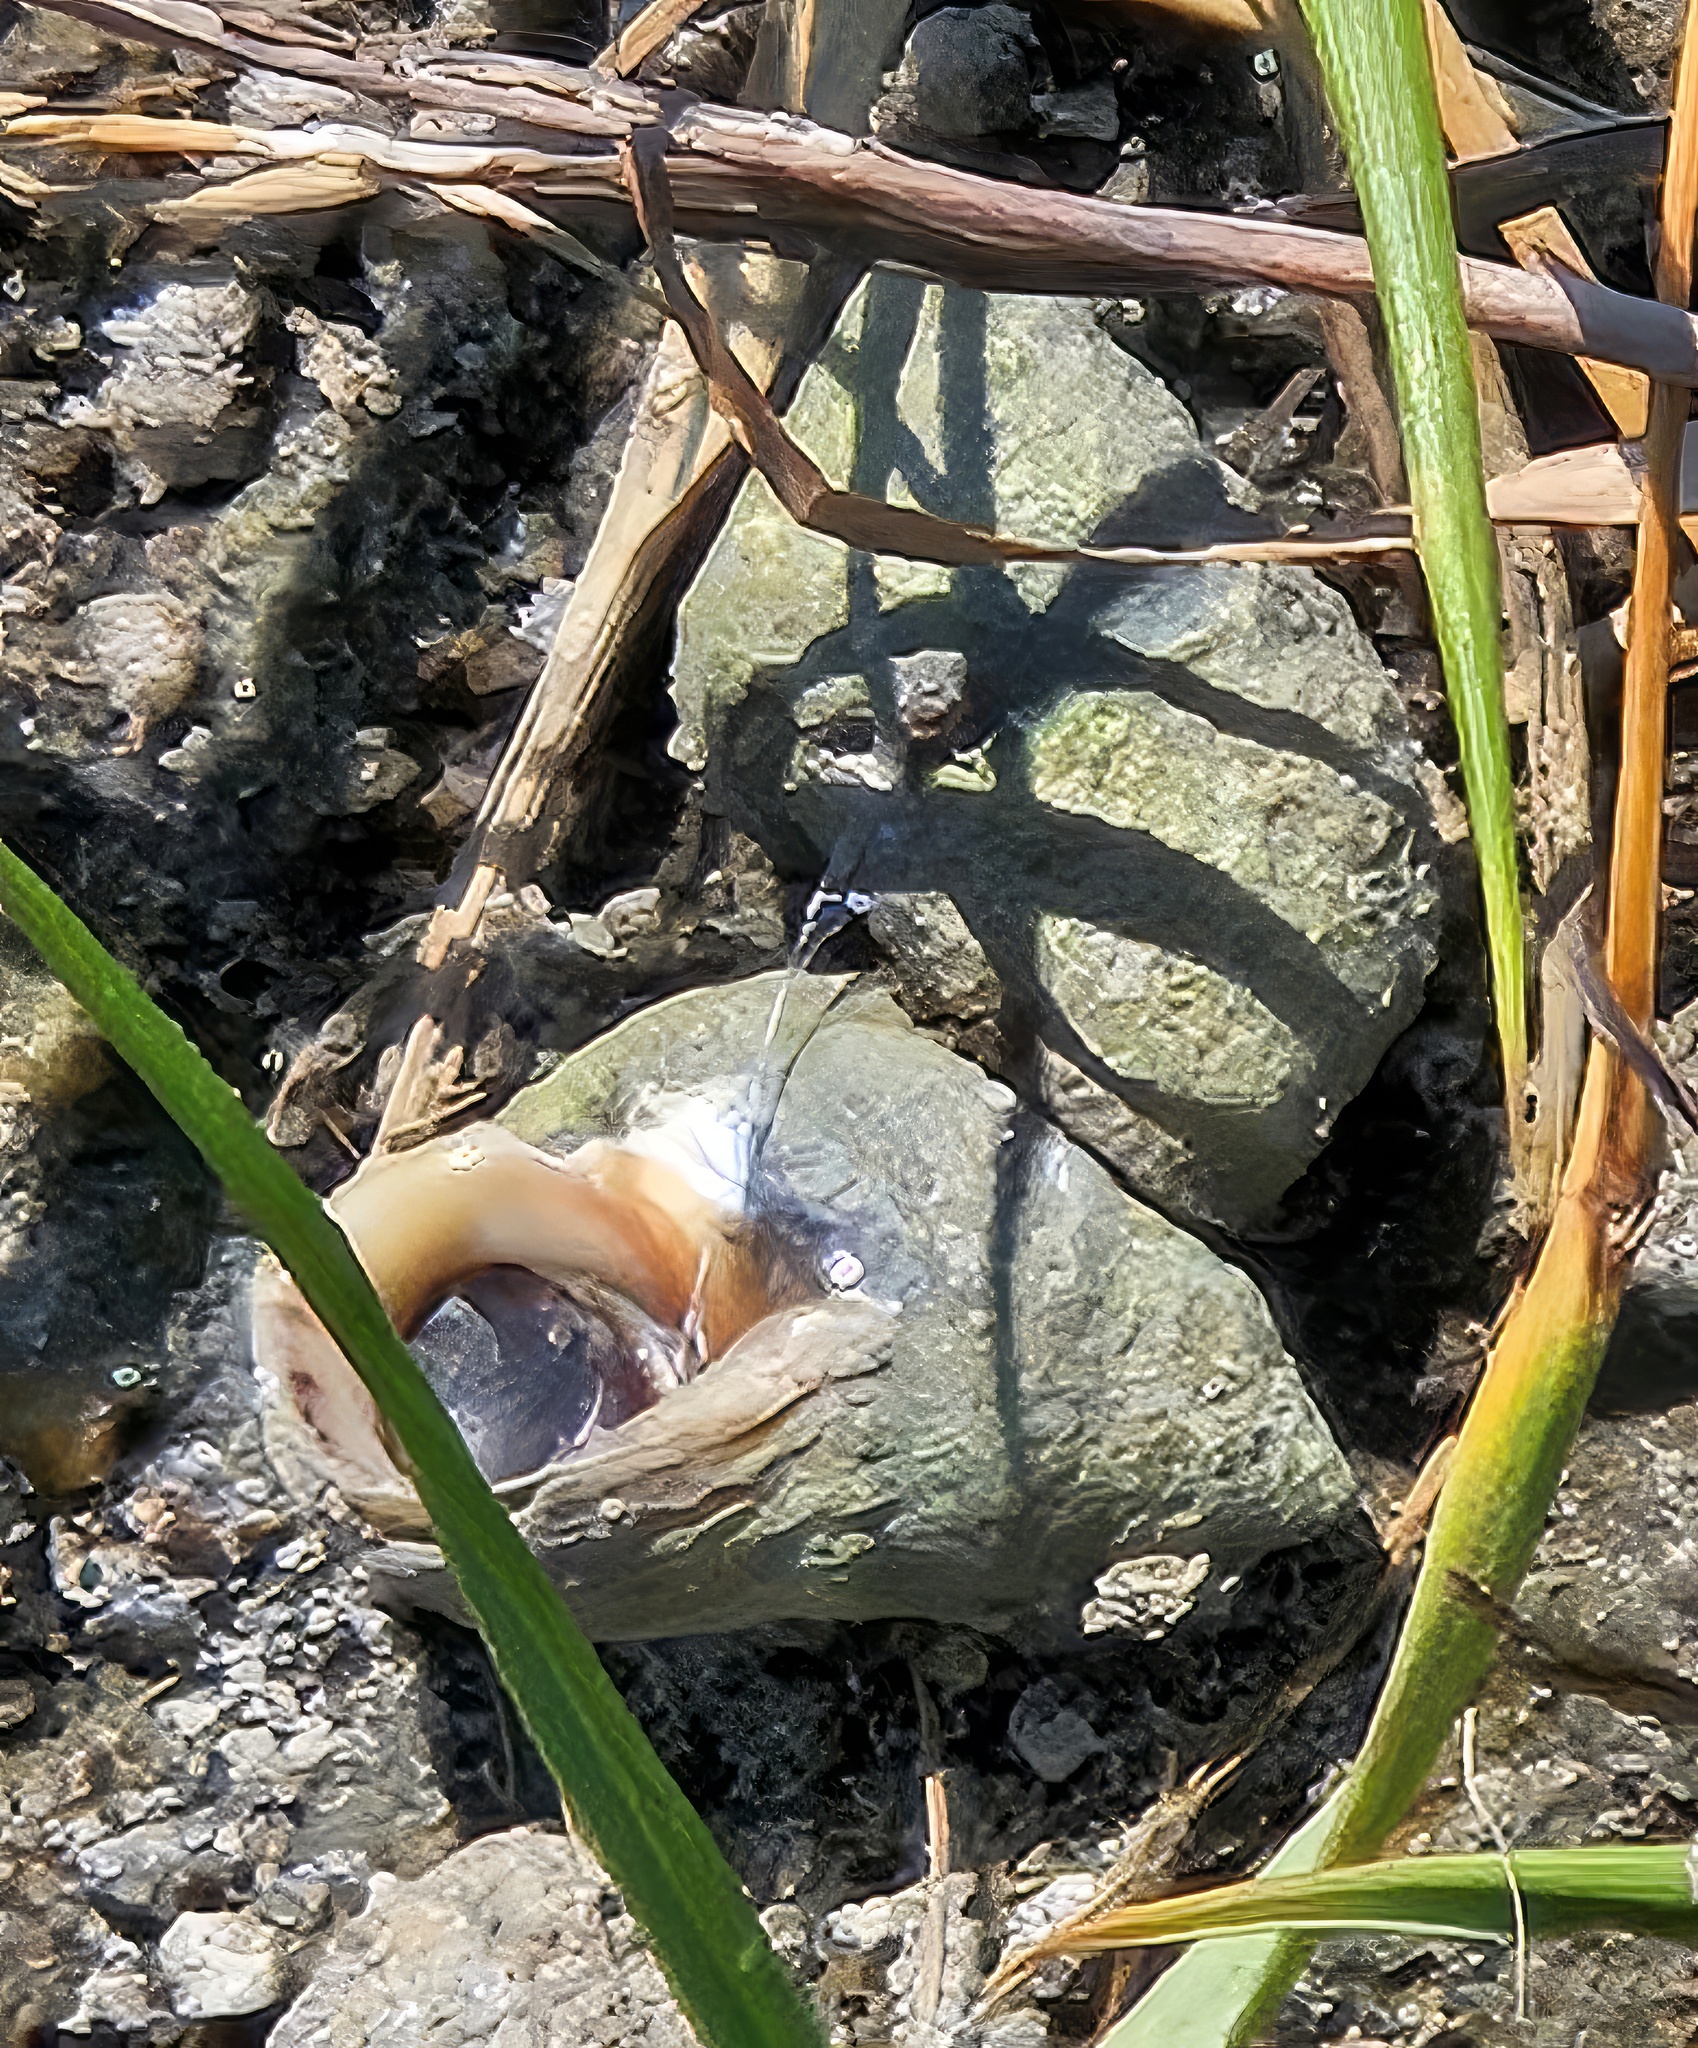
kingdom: Animalia
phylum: Mollusca
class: Gastropoda
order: Littorinimorpha
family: Littorinidae
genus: Littoraria
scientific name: Littoraria irrorata
